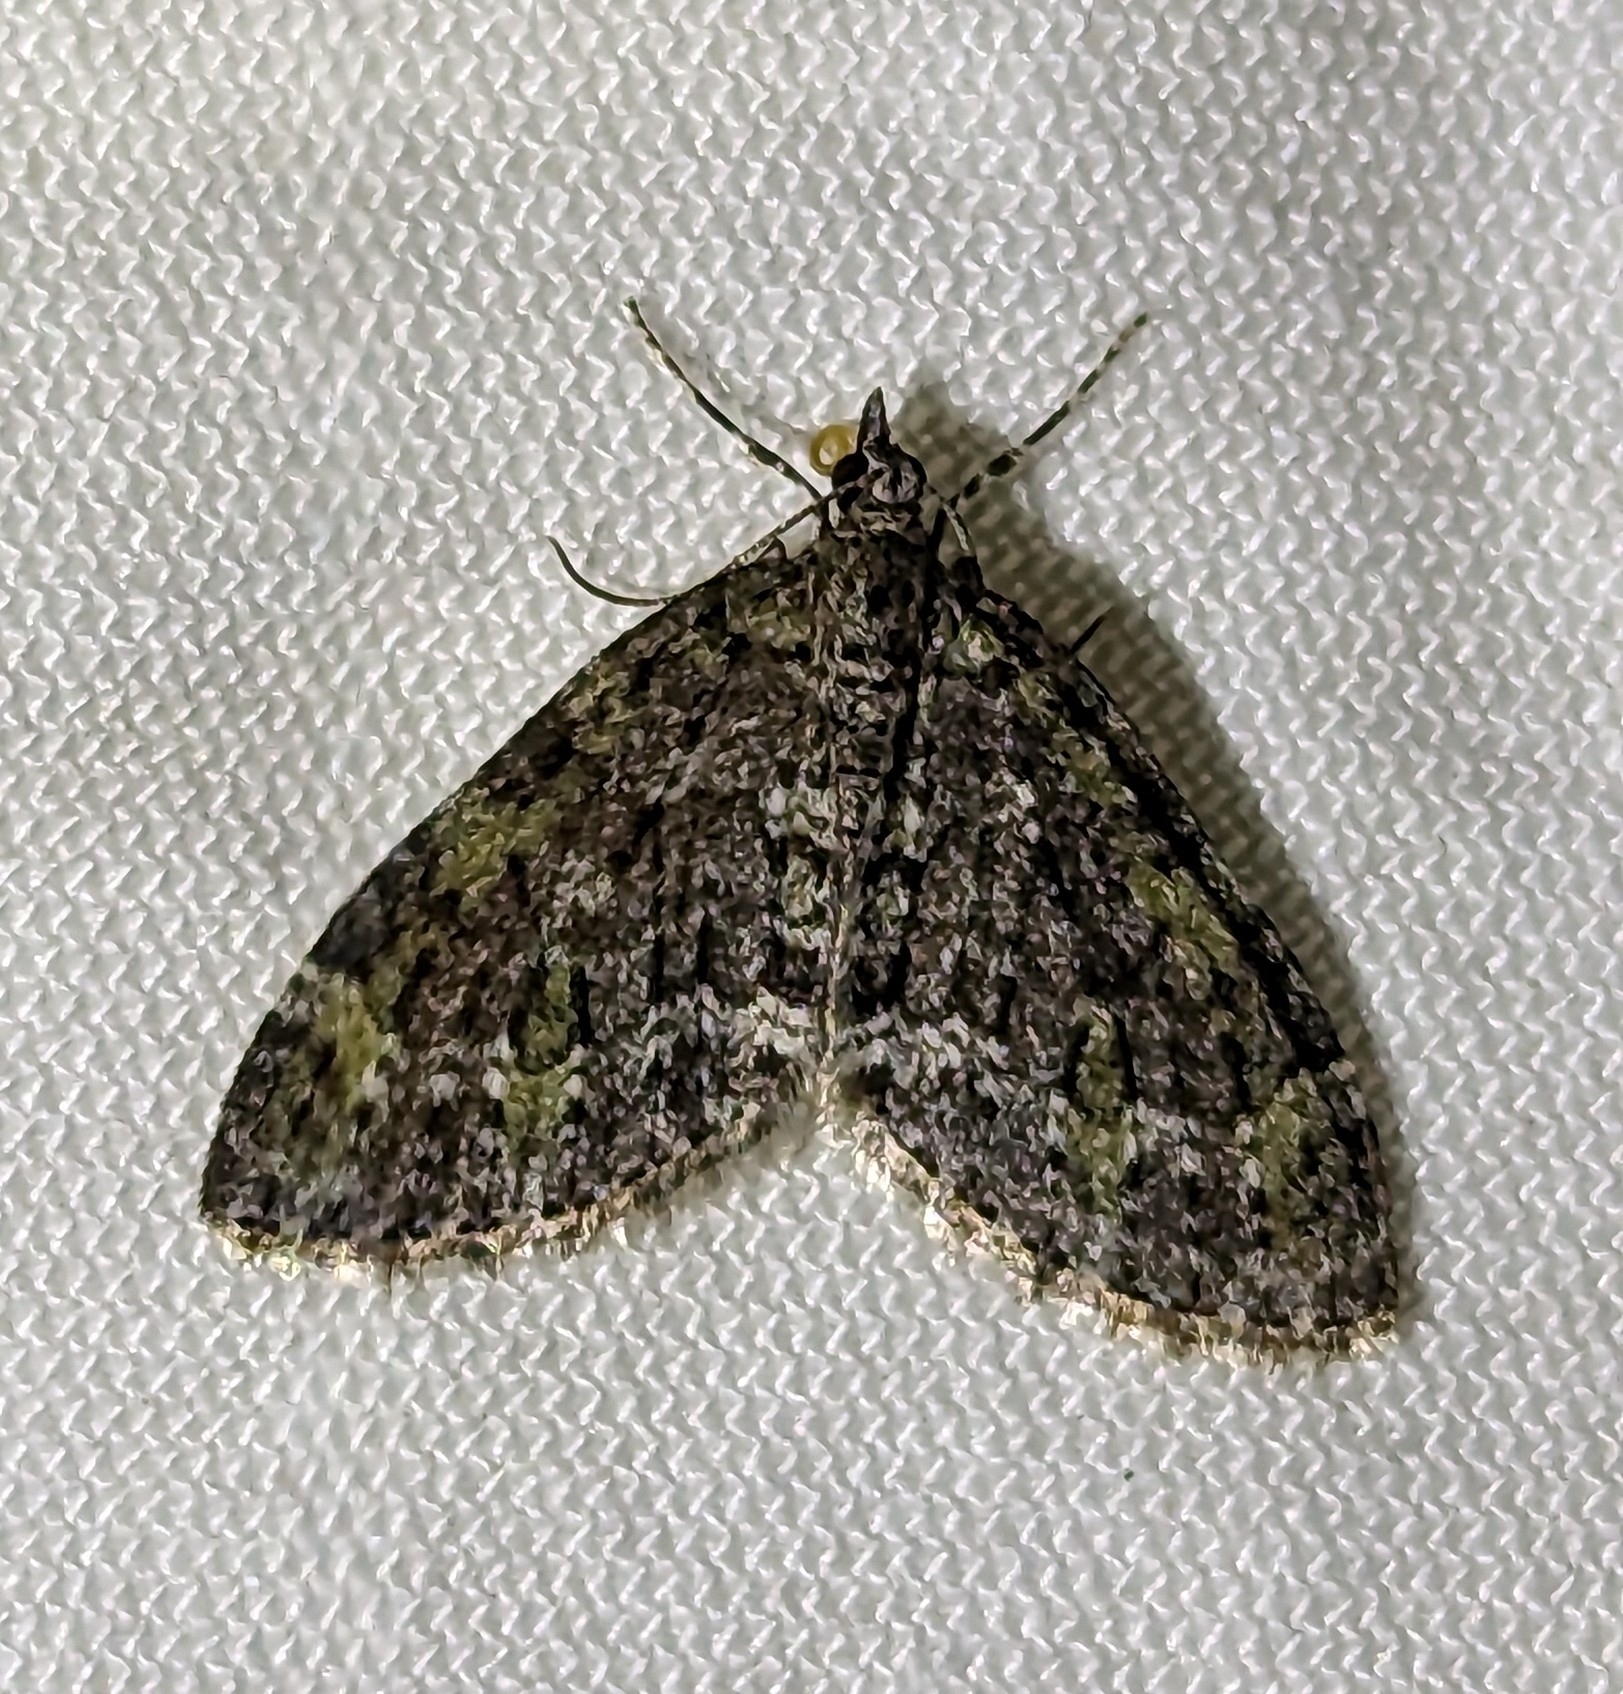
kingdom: Animalia
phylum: Arthropoda
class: Insecta
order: Lepidoptera
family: Geometridae
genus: Acasis
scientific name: Acasis viridata
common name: Olive-and-black carpet moth
